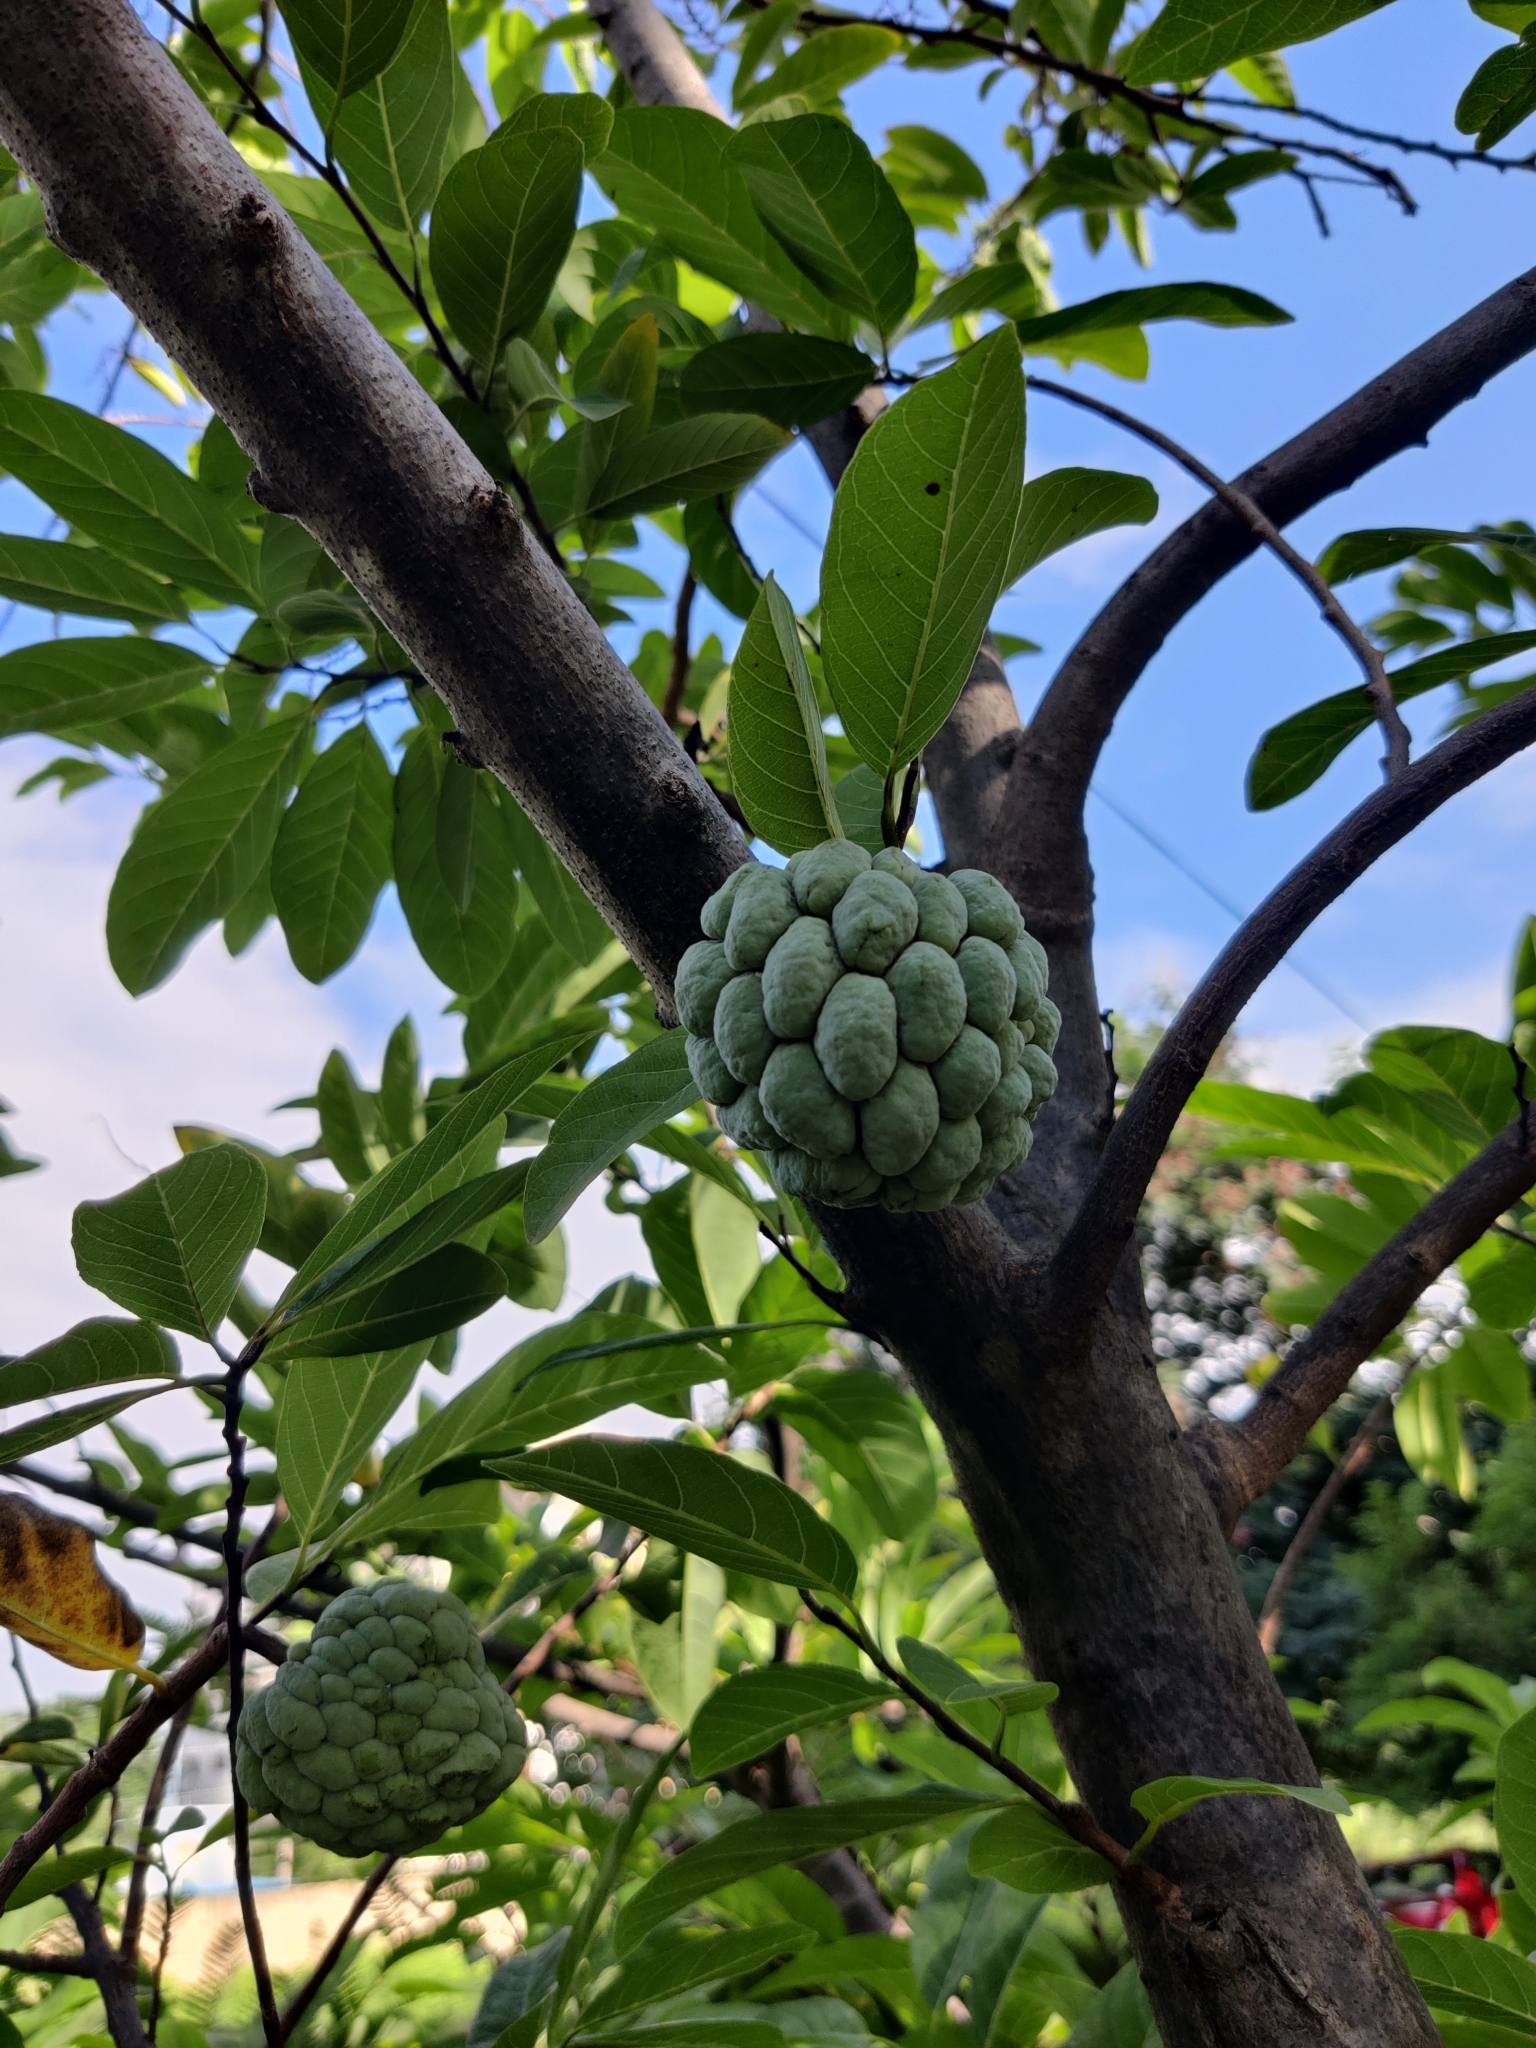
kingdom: Plantae
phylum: Tracheophyta
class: Magnoliopsida
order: Magnoliales
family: Annonaceae
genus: Annona
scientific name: Annona squamosa
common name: Custard-apple
